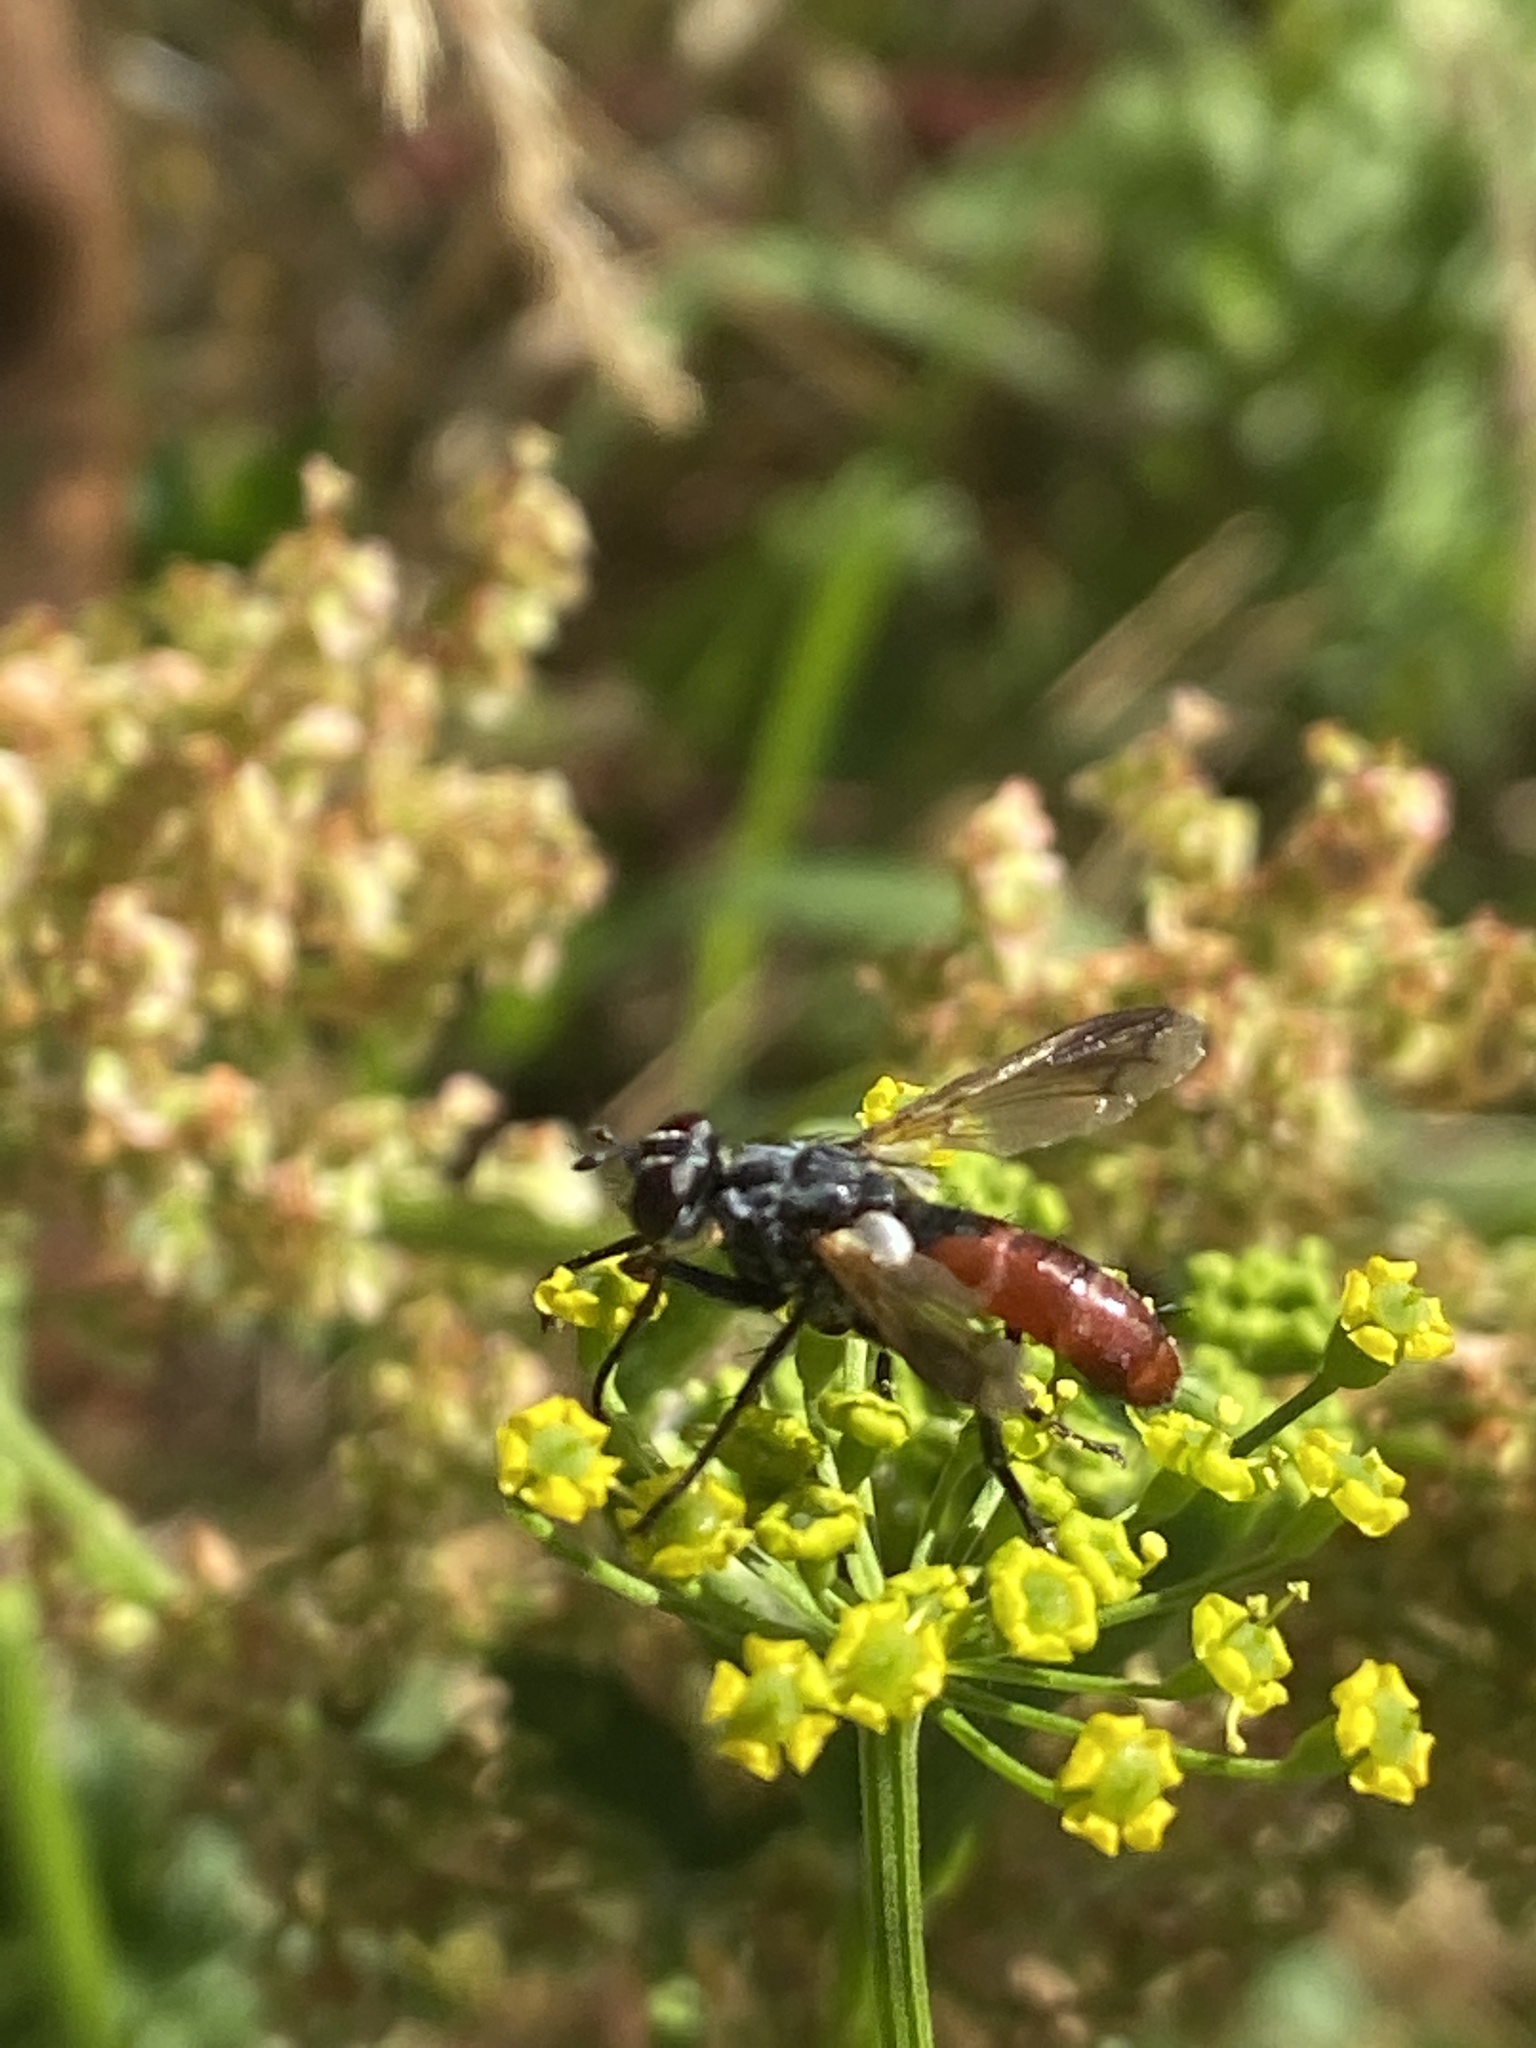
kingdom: Animalia
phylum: Arthropoda
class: Insecta
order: Diptera
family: Tachinidae
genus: Cylindromyia
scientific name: Cylindromyia bicolor
